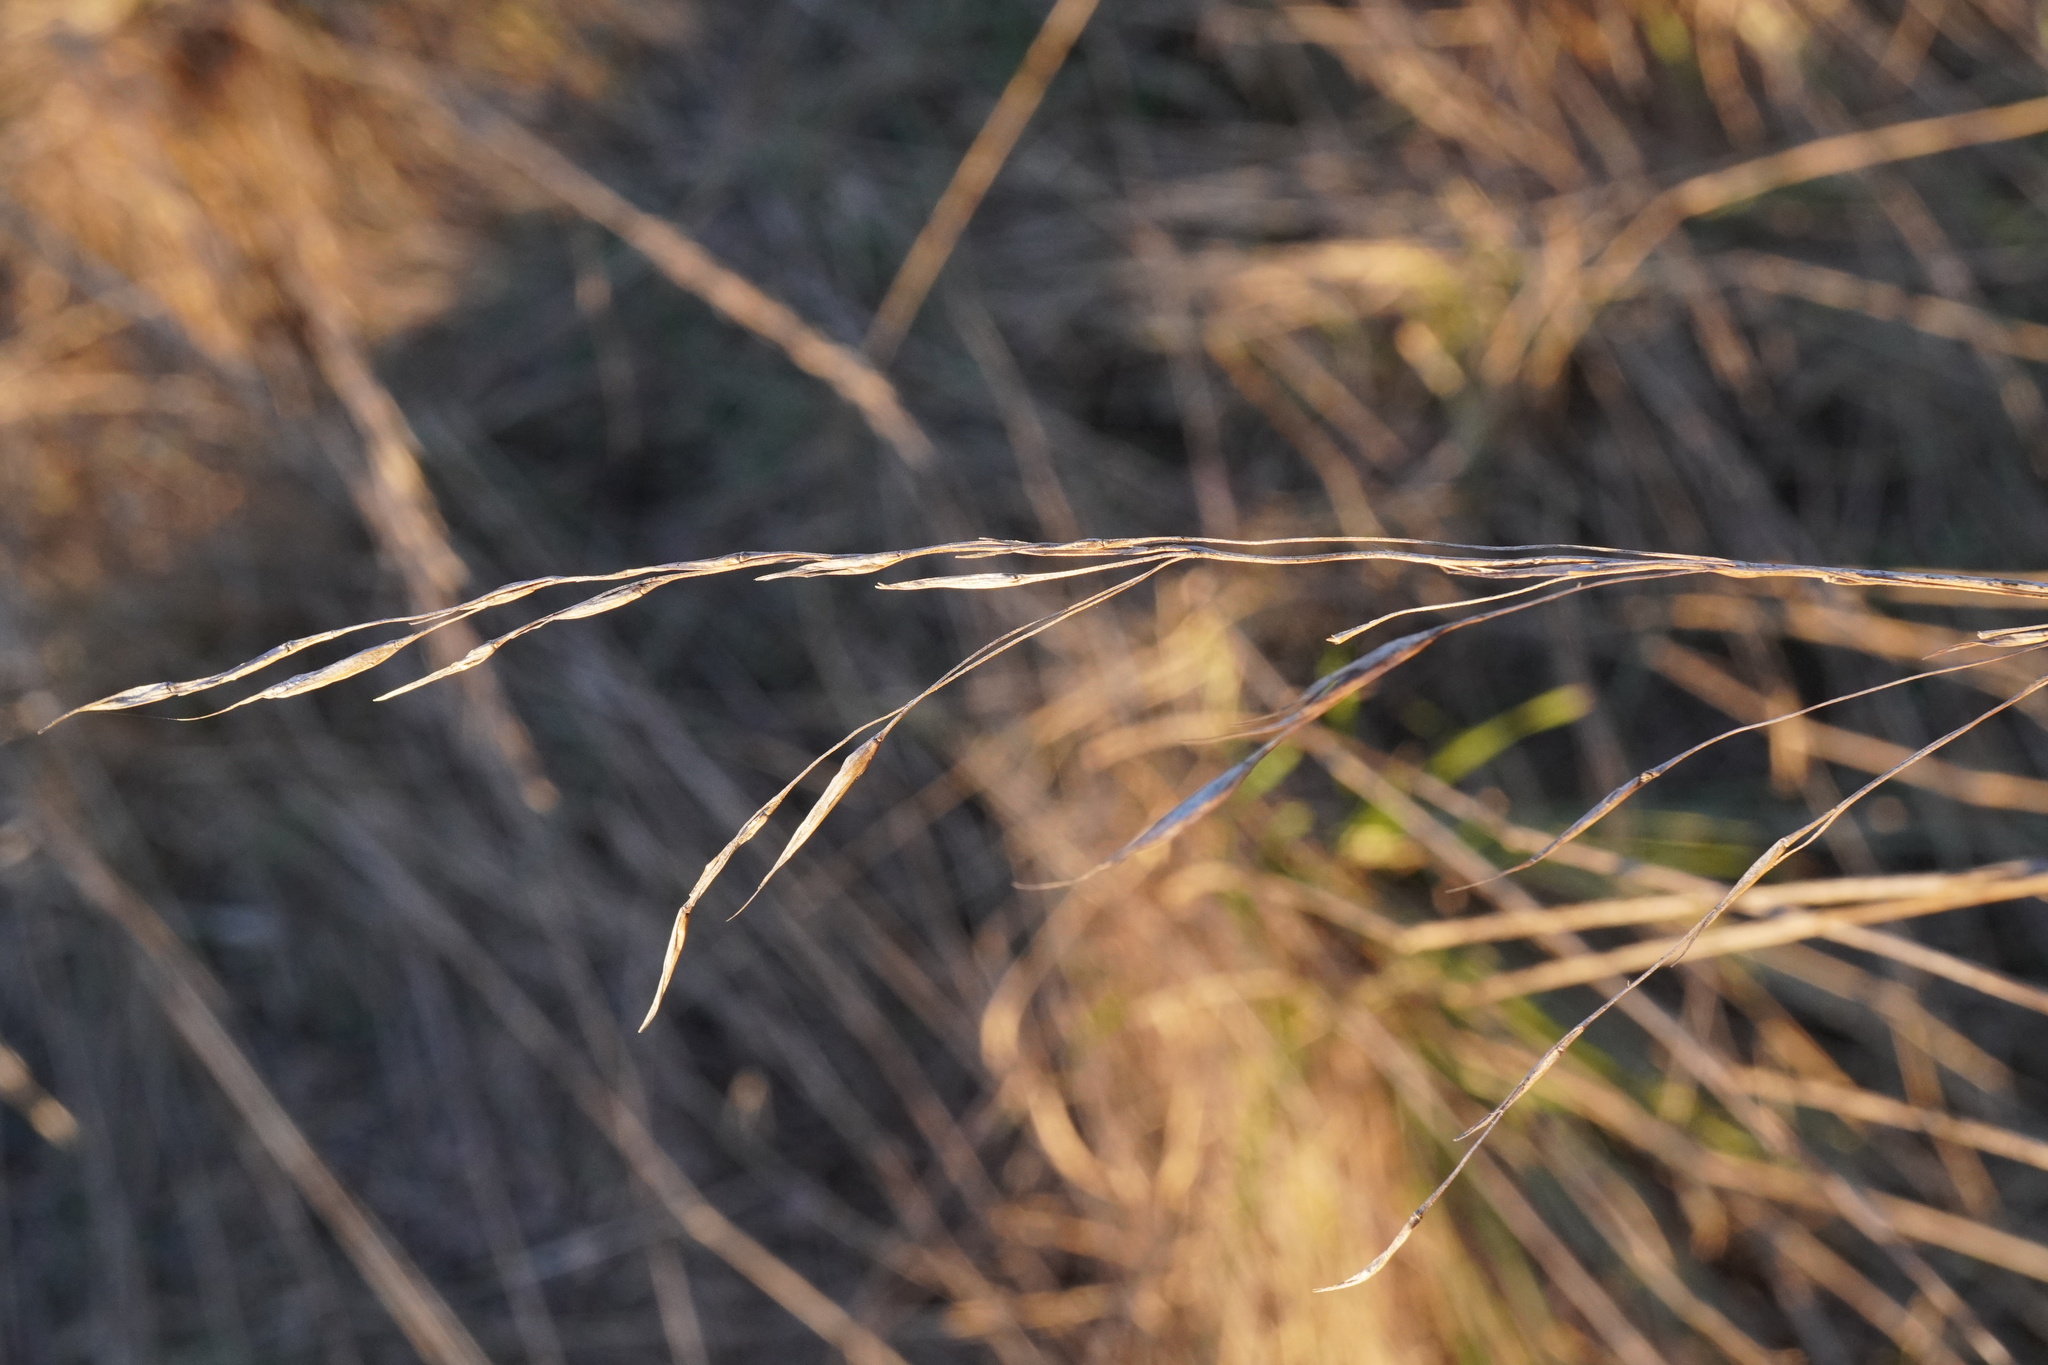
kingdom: Plantae
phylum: Tracheophyta
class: Liliopsida
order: Poales
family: Poaceae
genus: Bromus
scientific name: Bromus erectus
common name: Erect brome
